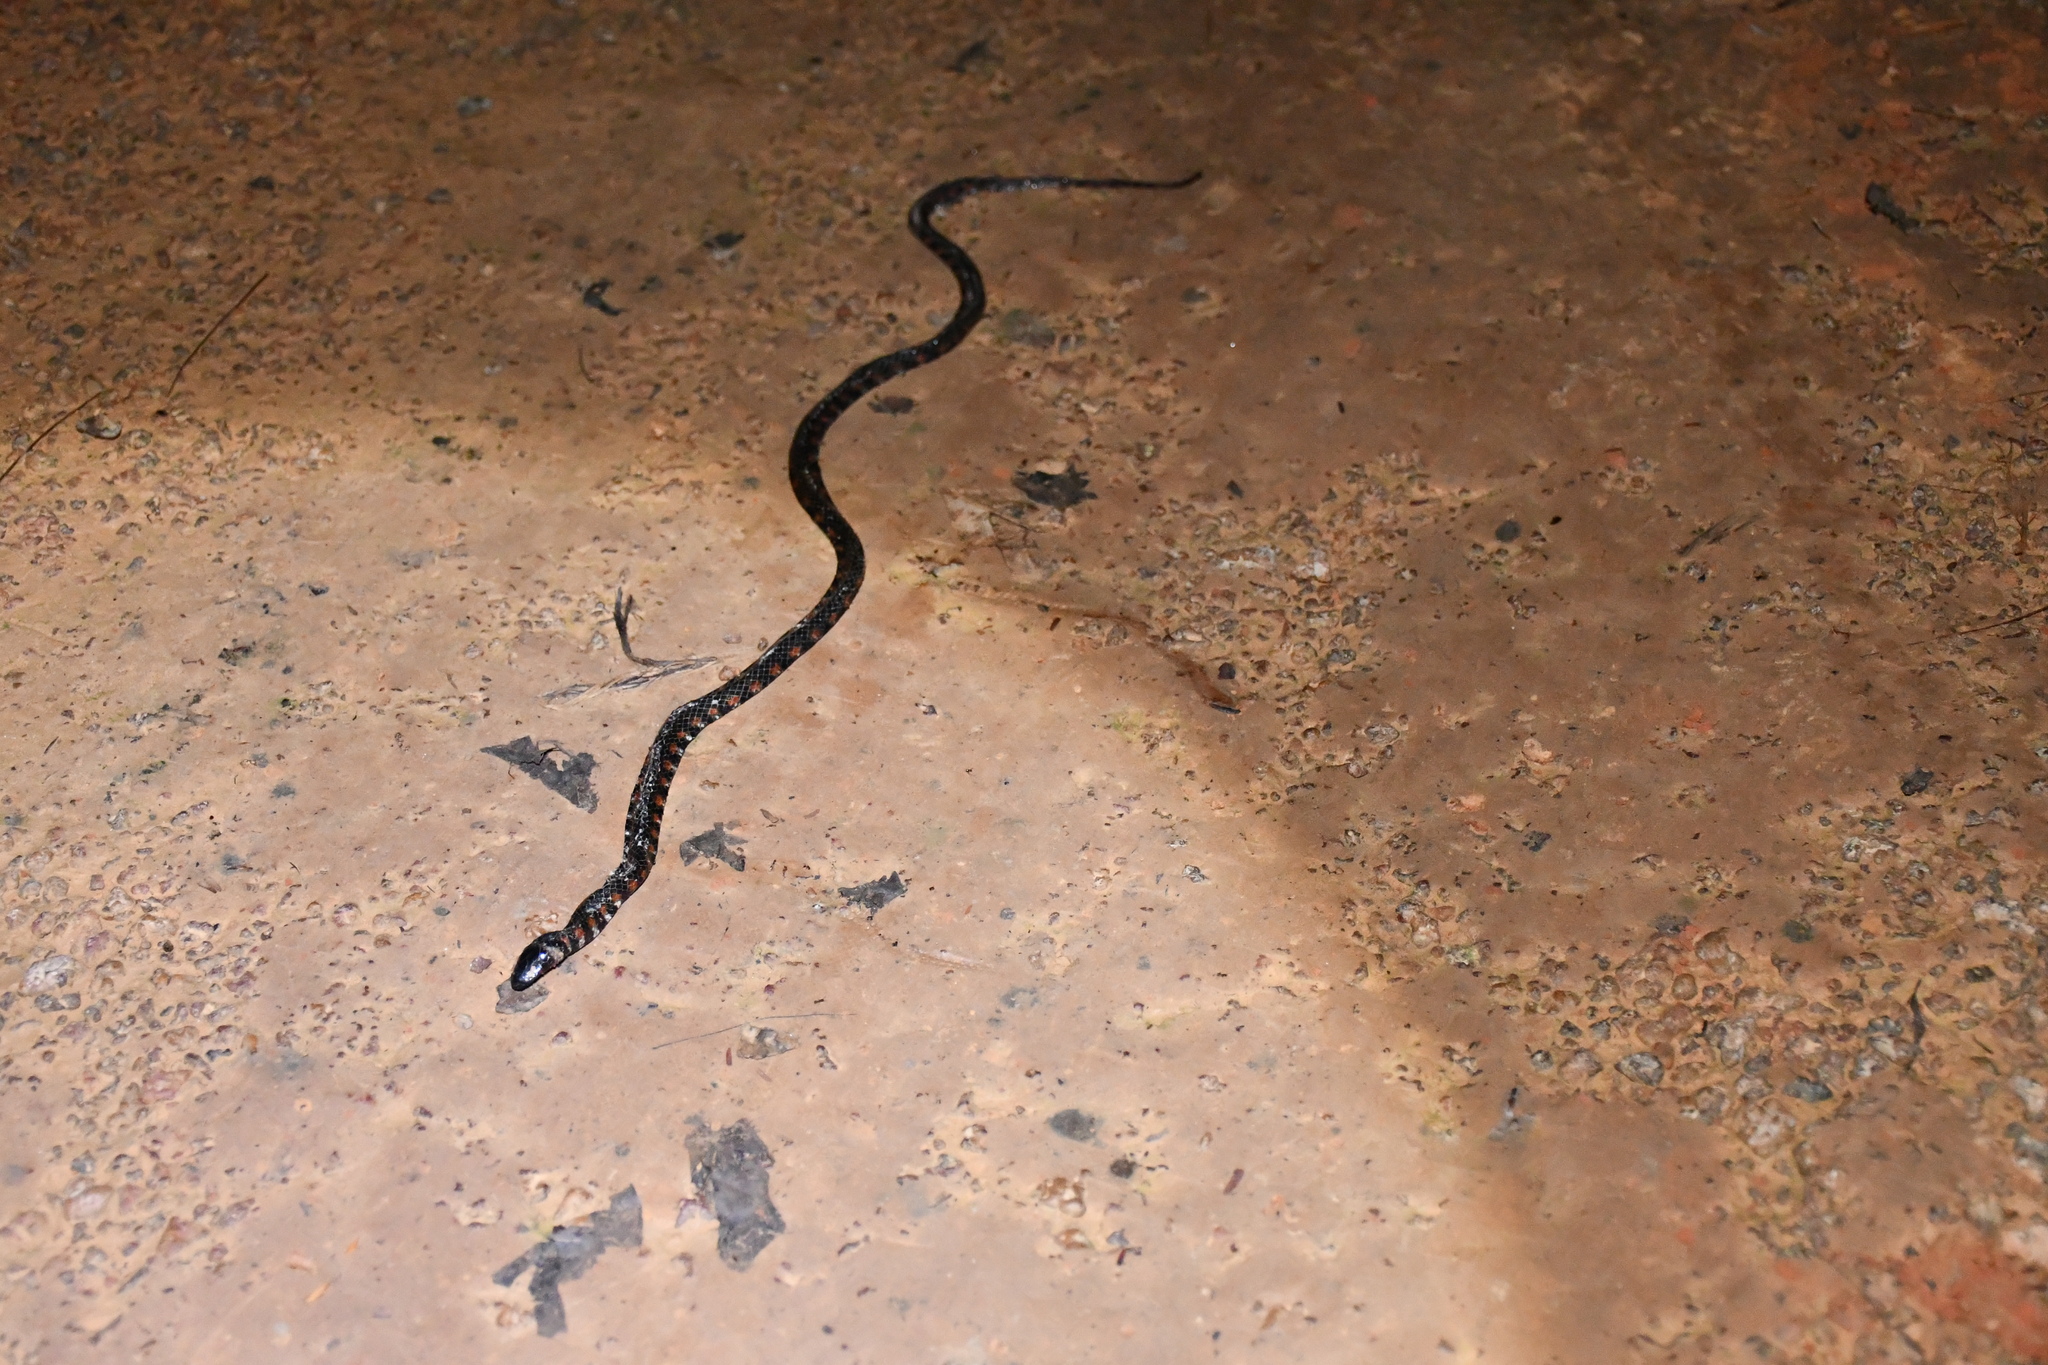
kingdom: Animalia
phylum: Chordata
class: Squamata
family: Colubridae
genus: Helicops
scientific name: Helicops leopardinus
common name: Leopard keelback
